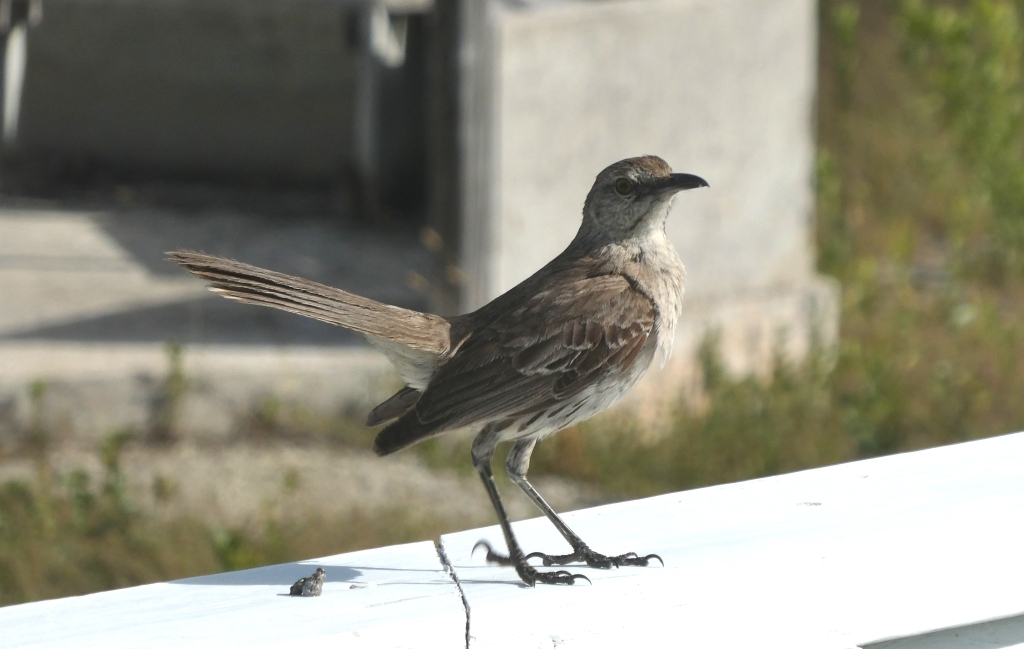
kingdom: Animalia
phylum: Chordata
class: Aves
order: Passeriformes
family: Mimidae
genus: Mimus
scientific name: Mimus gundlachii
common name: Bahama mockingbird
